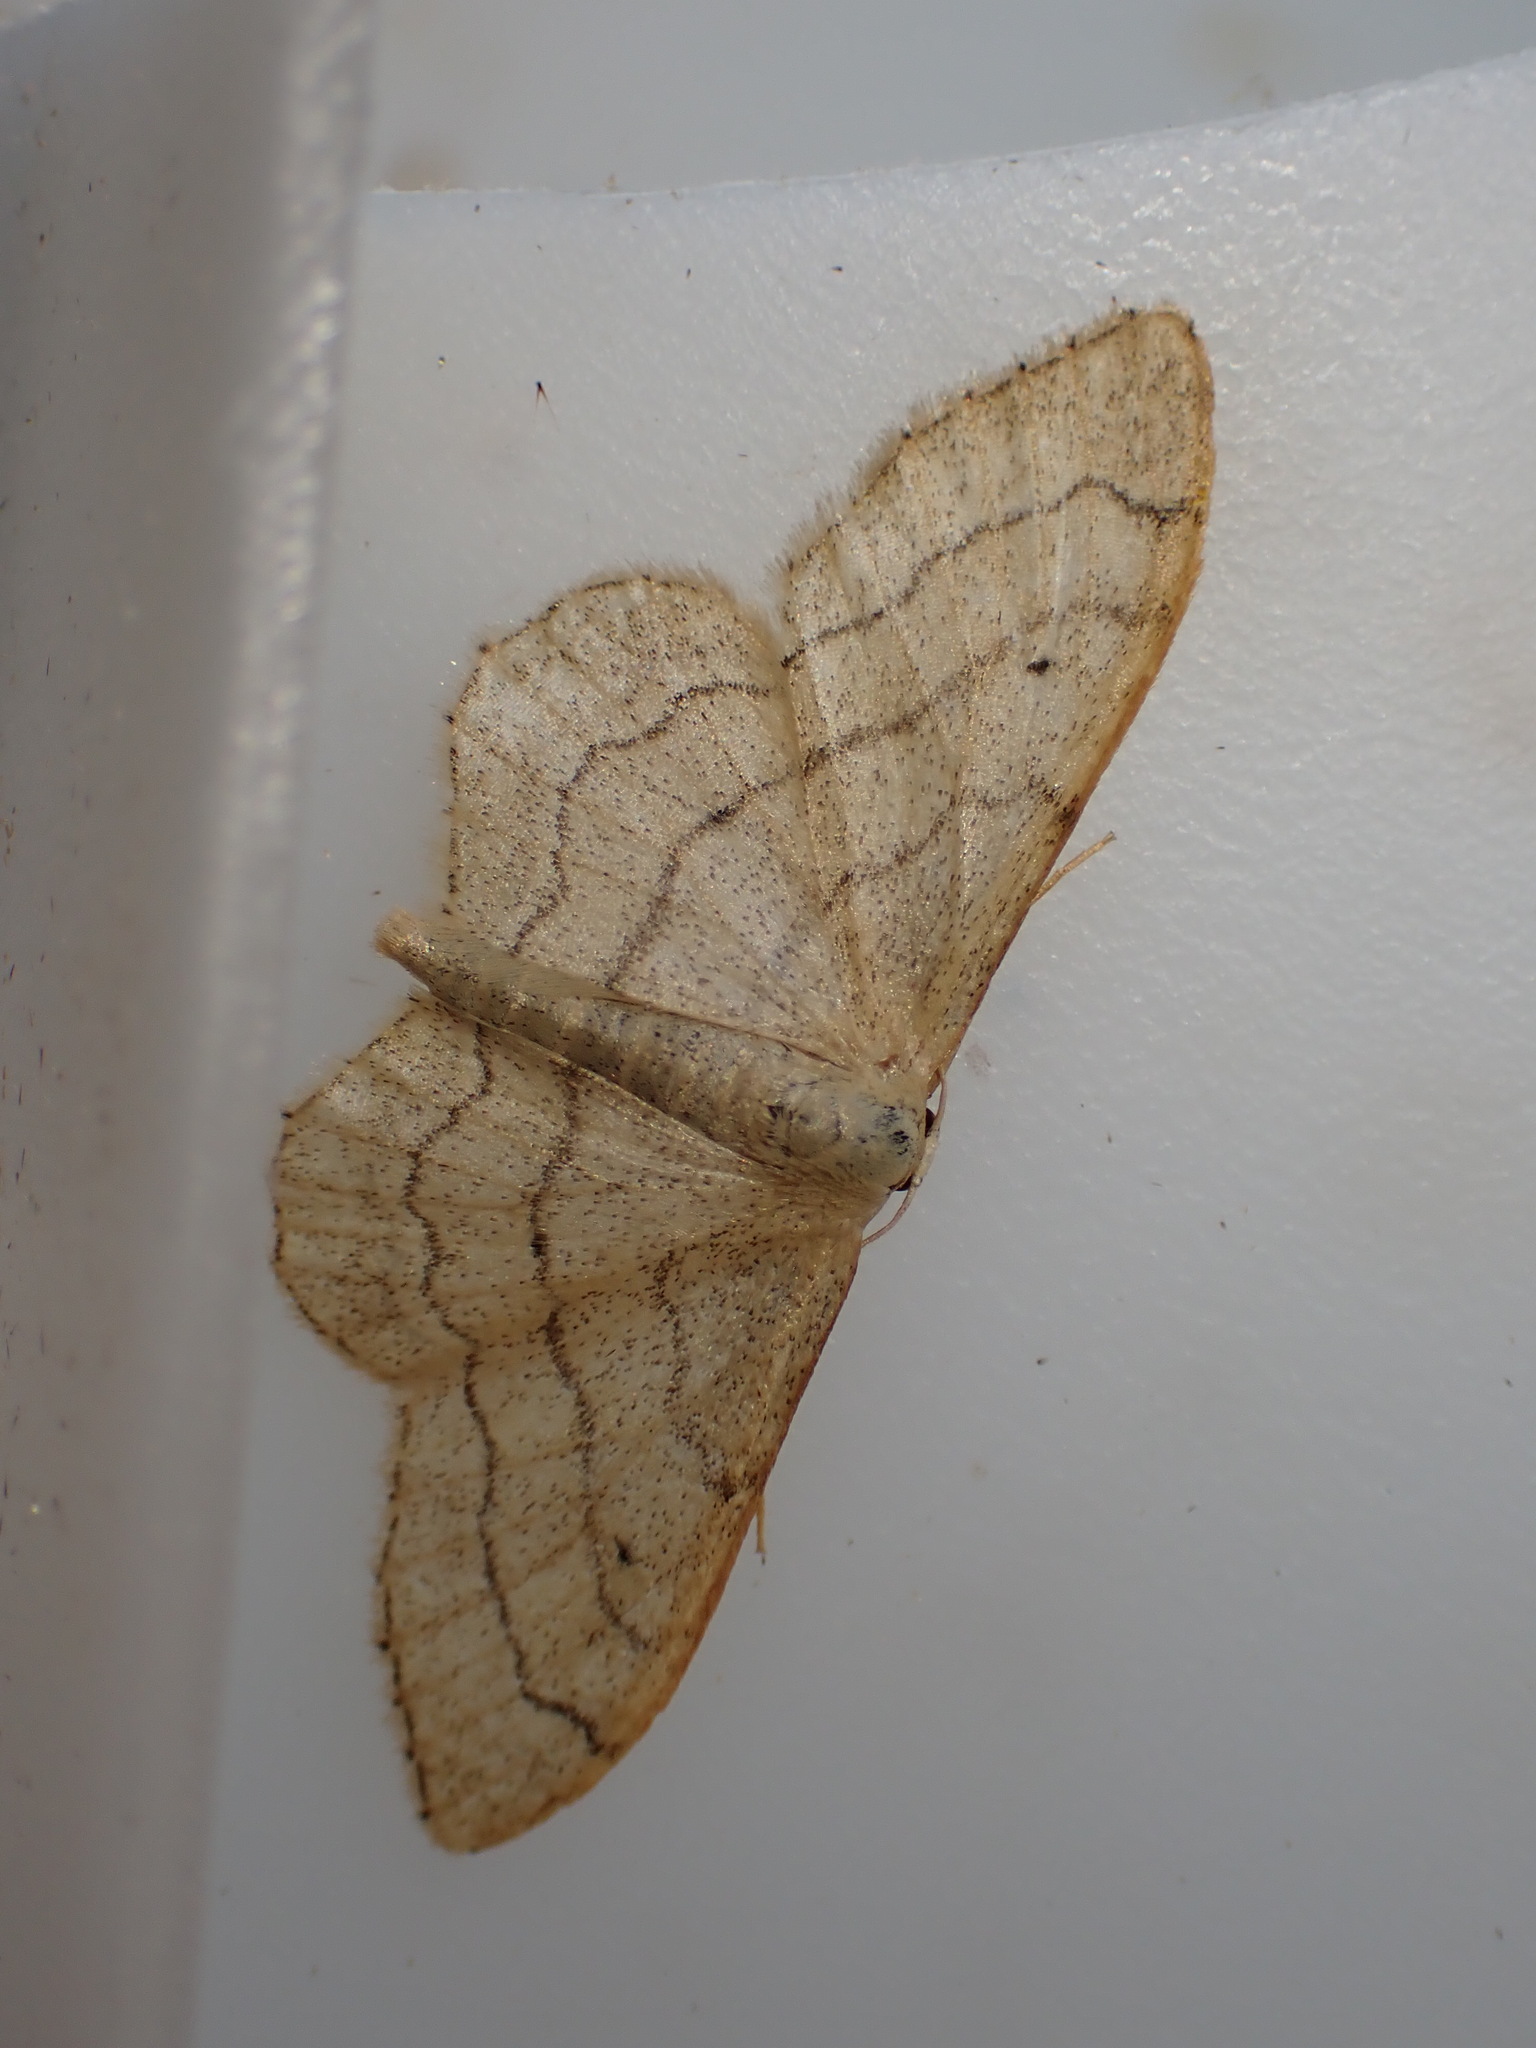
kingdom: Animalia
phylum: Arthropoda
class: Insecta
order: Lepidoptera
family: Geometridae
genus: Idaea
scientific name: Idaea aversata
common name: Riband wave
